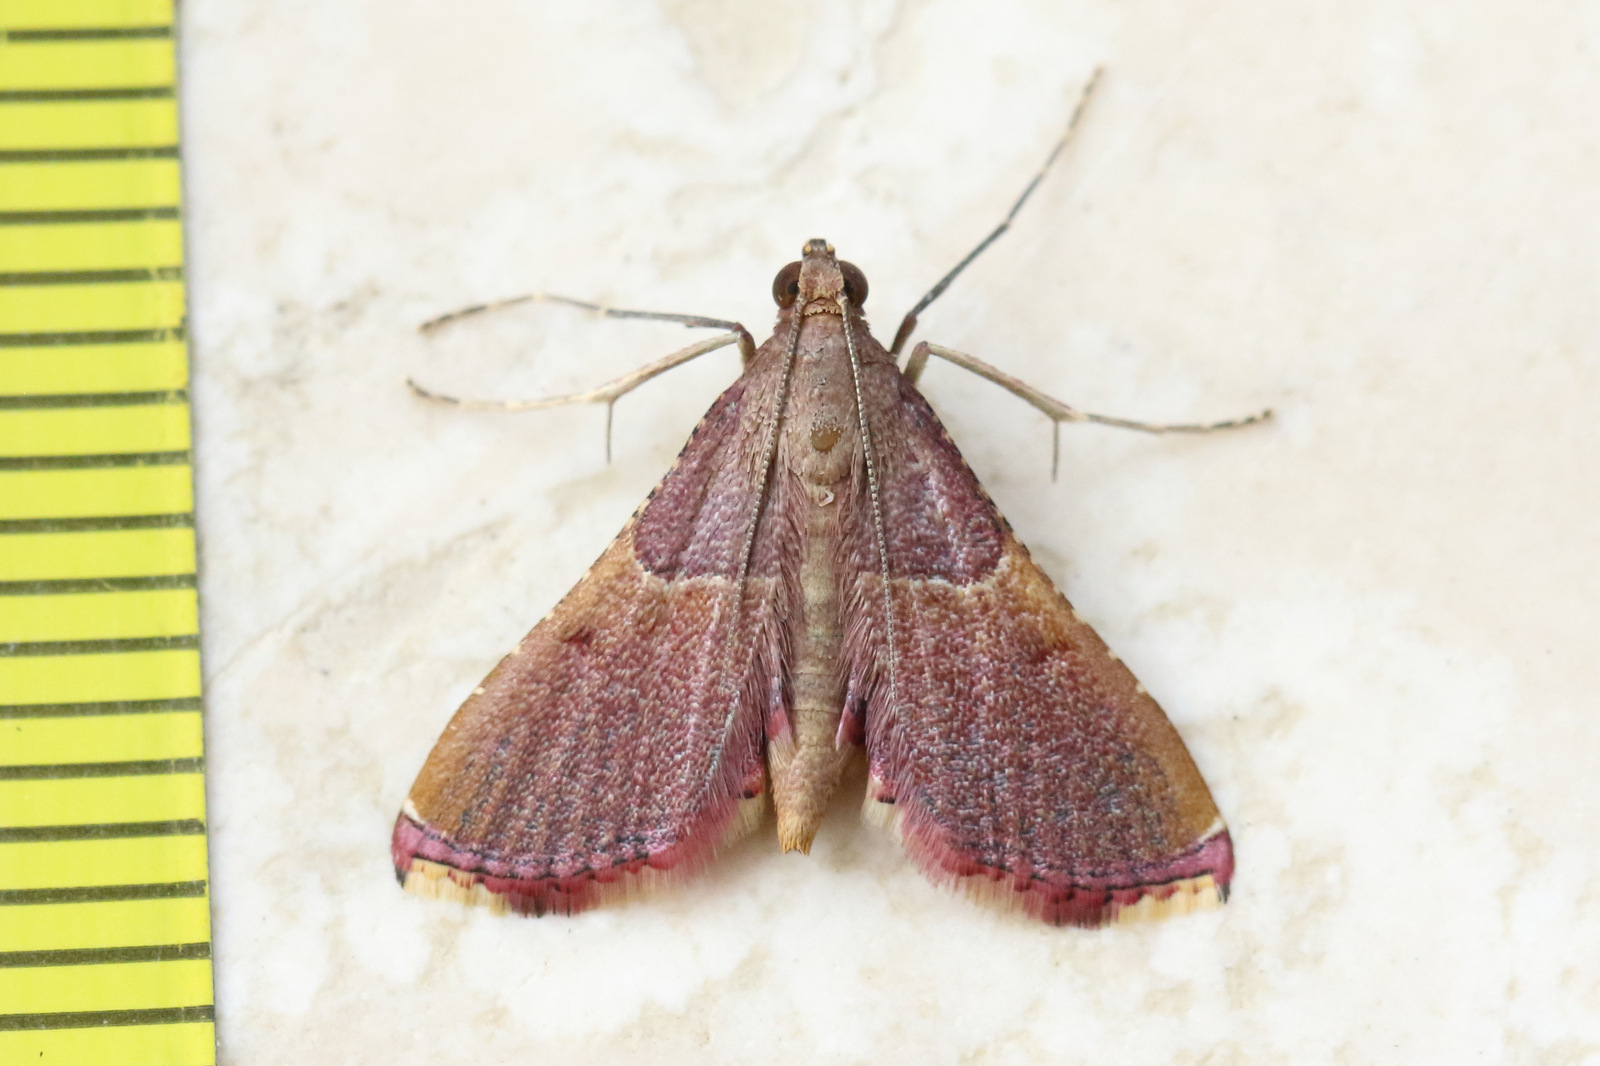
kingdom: Animalia
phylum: Arthropoda
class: Insecta
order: Lepidoptera
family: Pyralidae
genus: Endotricha
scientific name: Endotricha mesenterialis
